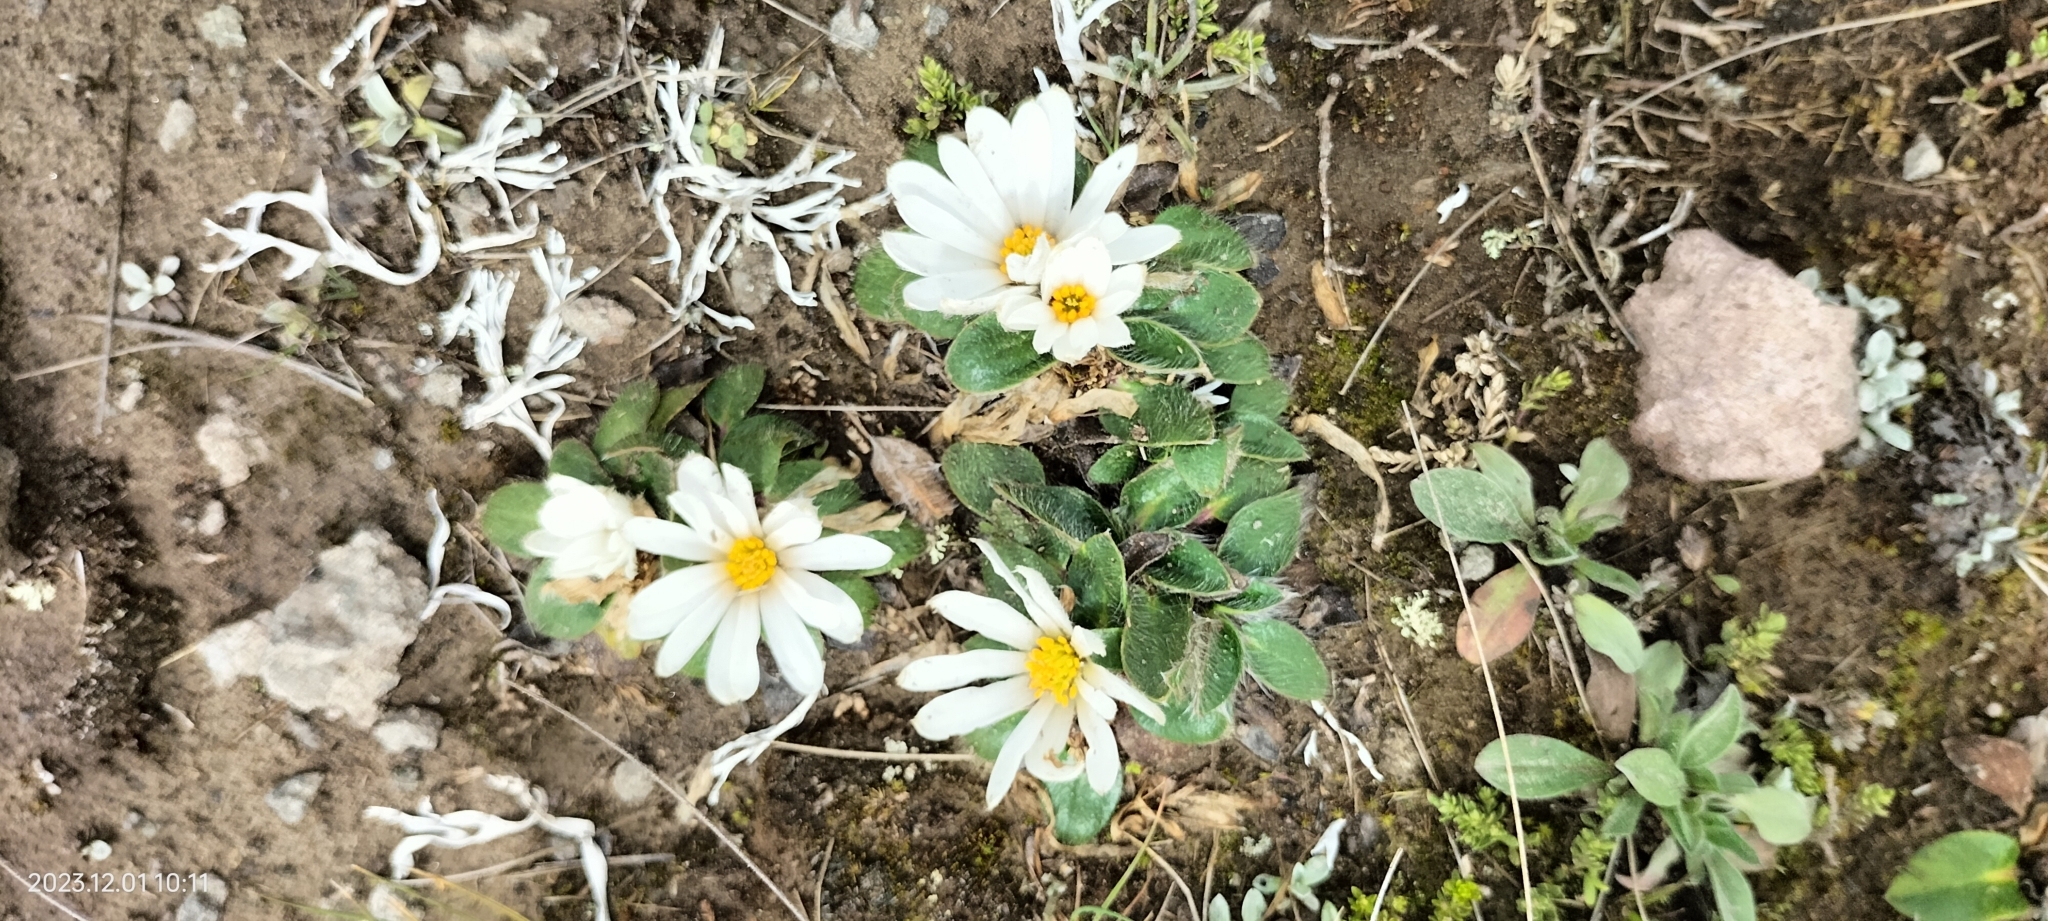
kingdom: Plantae
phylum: Tracheophyta
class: Magnoliopsida
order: Ranunculales
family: Ranunculaceae
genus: Knowltonia
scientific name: Knowltonia integrifolia
